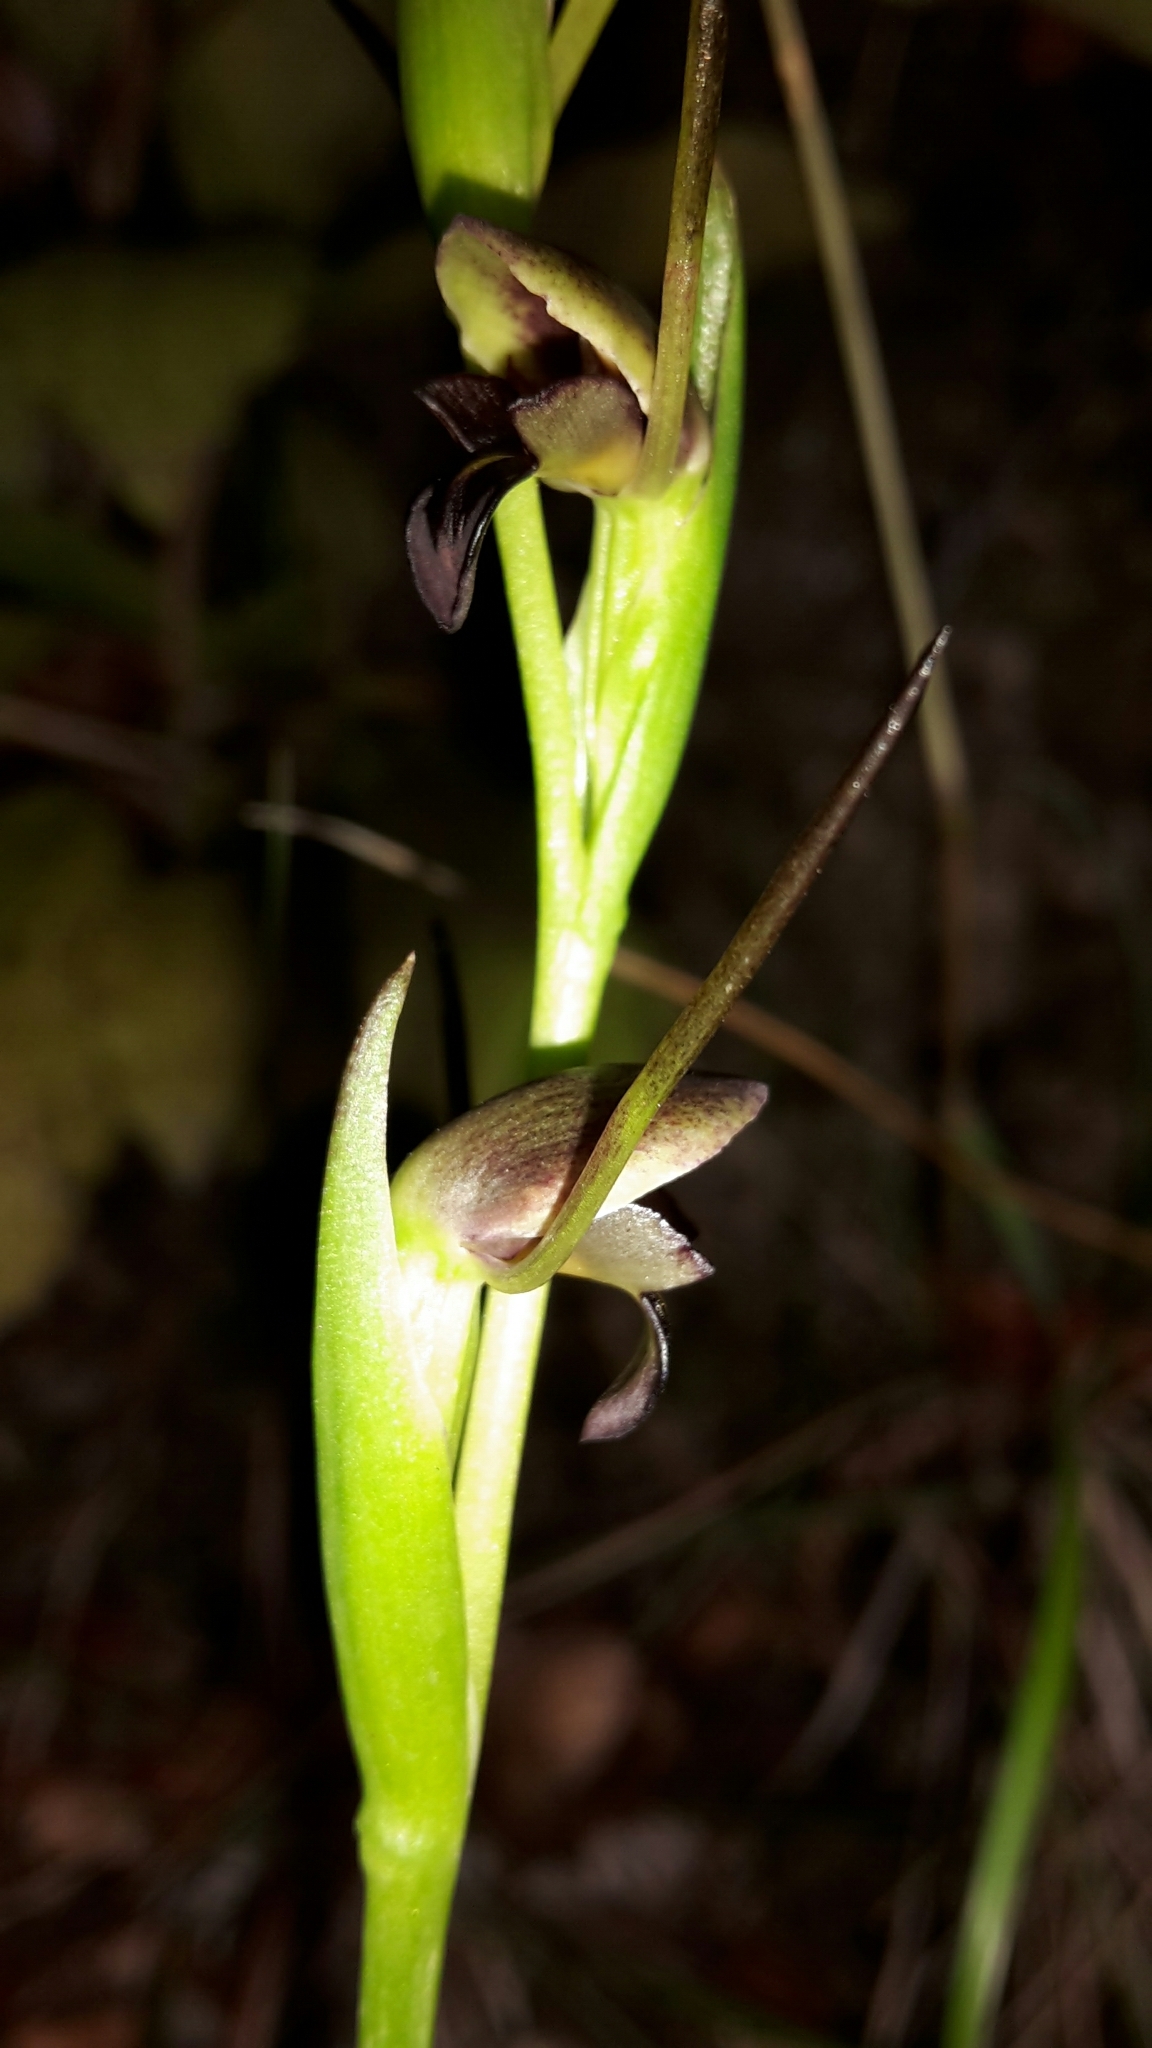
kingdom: Plantae
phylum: Tracheophyta
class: Liliopsida
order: Asparagales
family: Orchidaceae
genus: Orthoceras
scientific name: Orthoceras novae-zeelandiae
